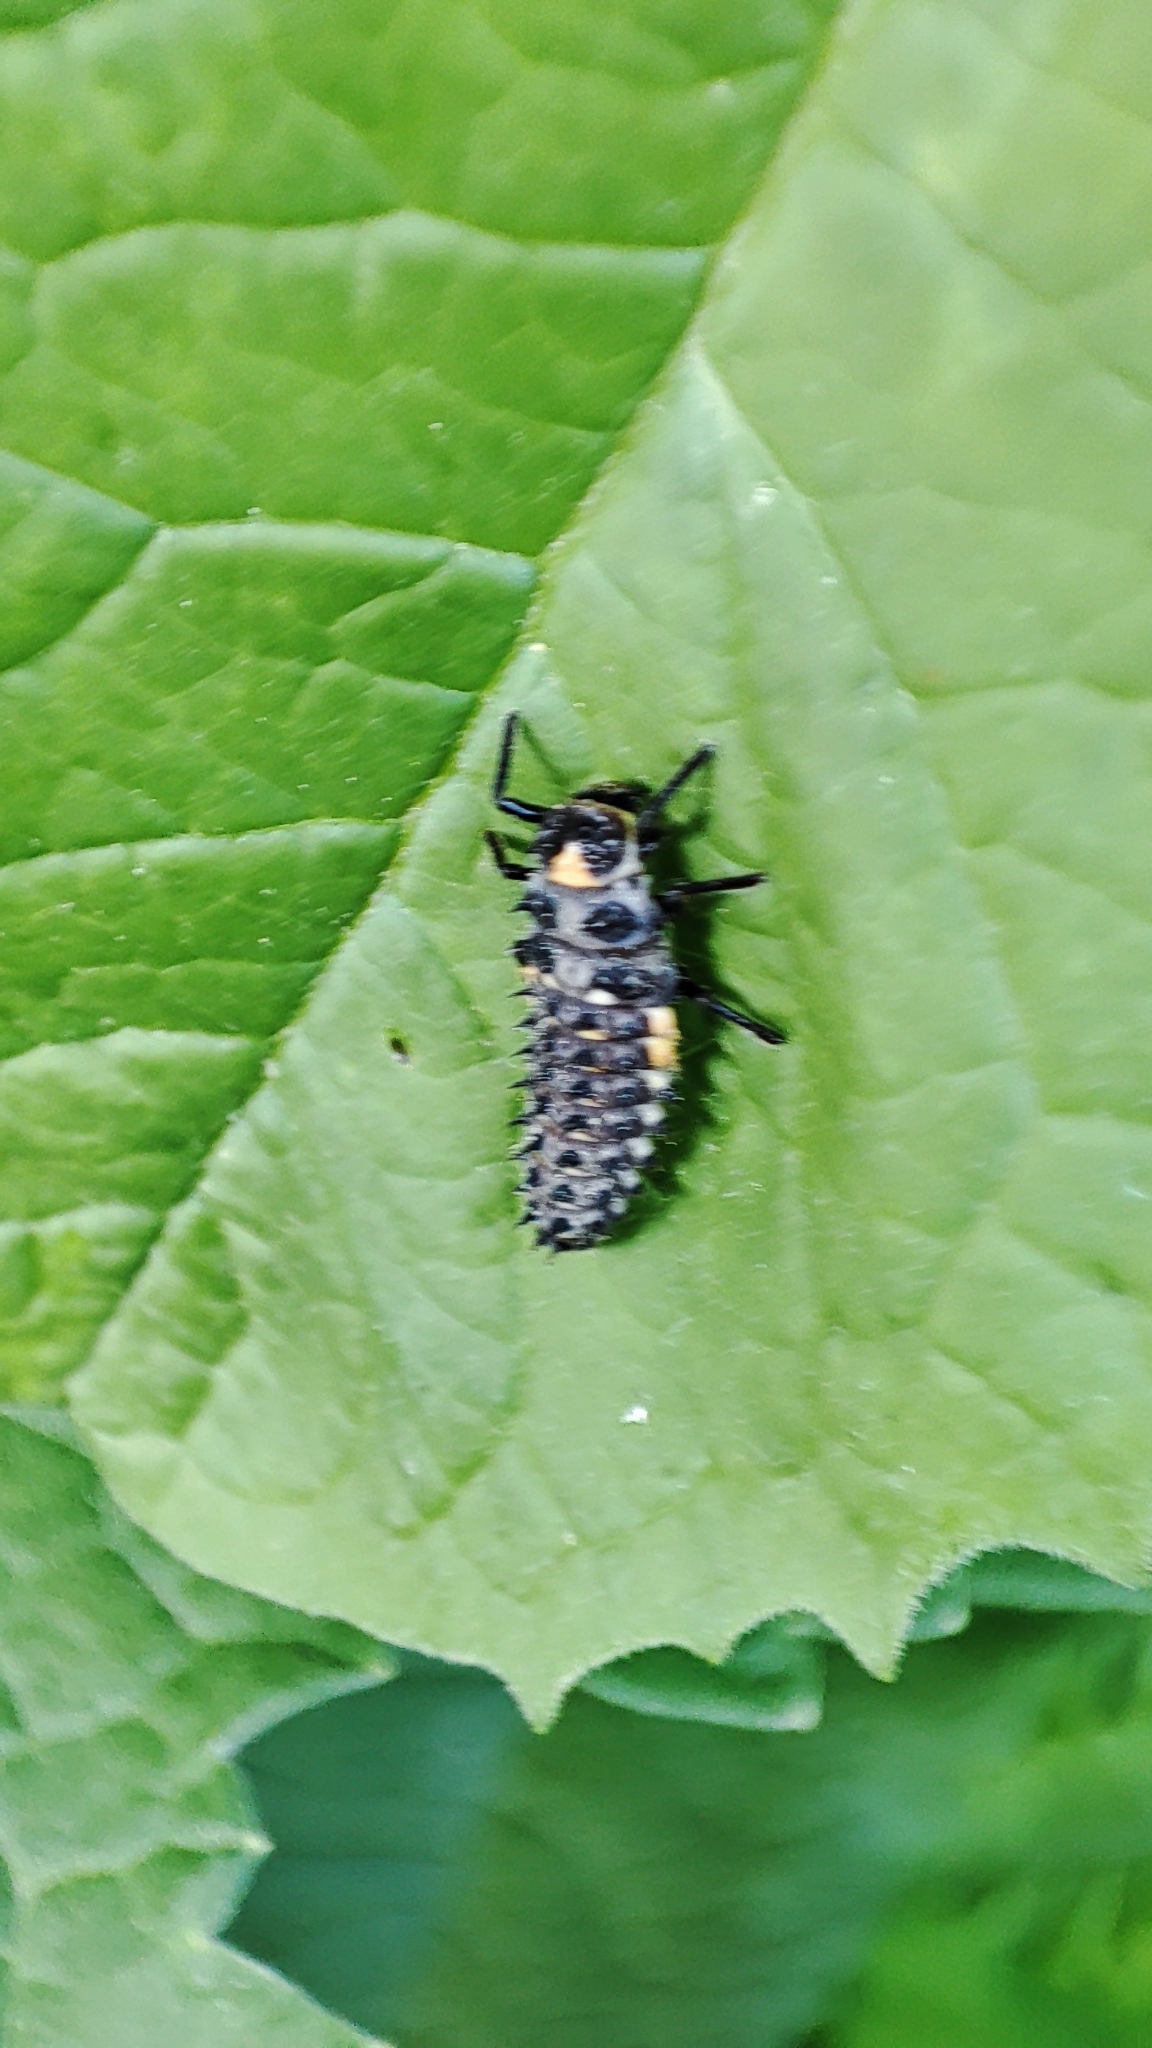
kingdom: Animalia
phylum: Arthropoda
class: Insecta
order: Coleoptera
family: Coccinellidae
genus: Anatis
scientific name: Anatis ocellata
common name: Eyed ladybird
